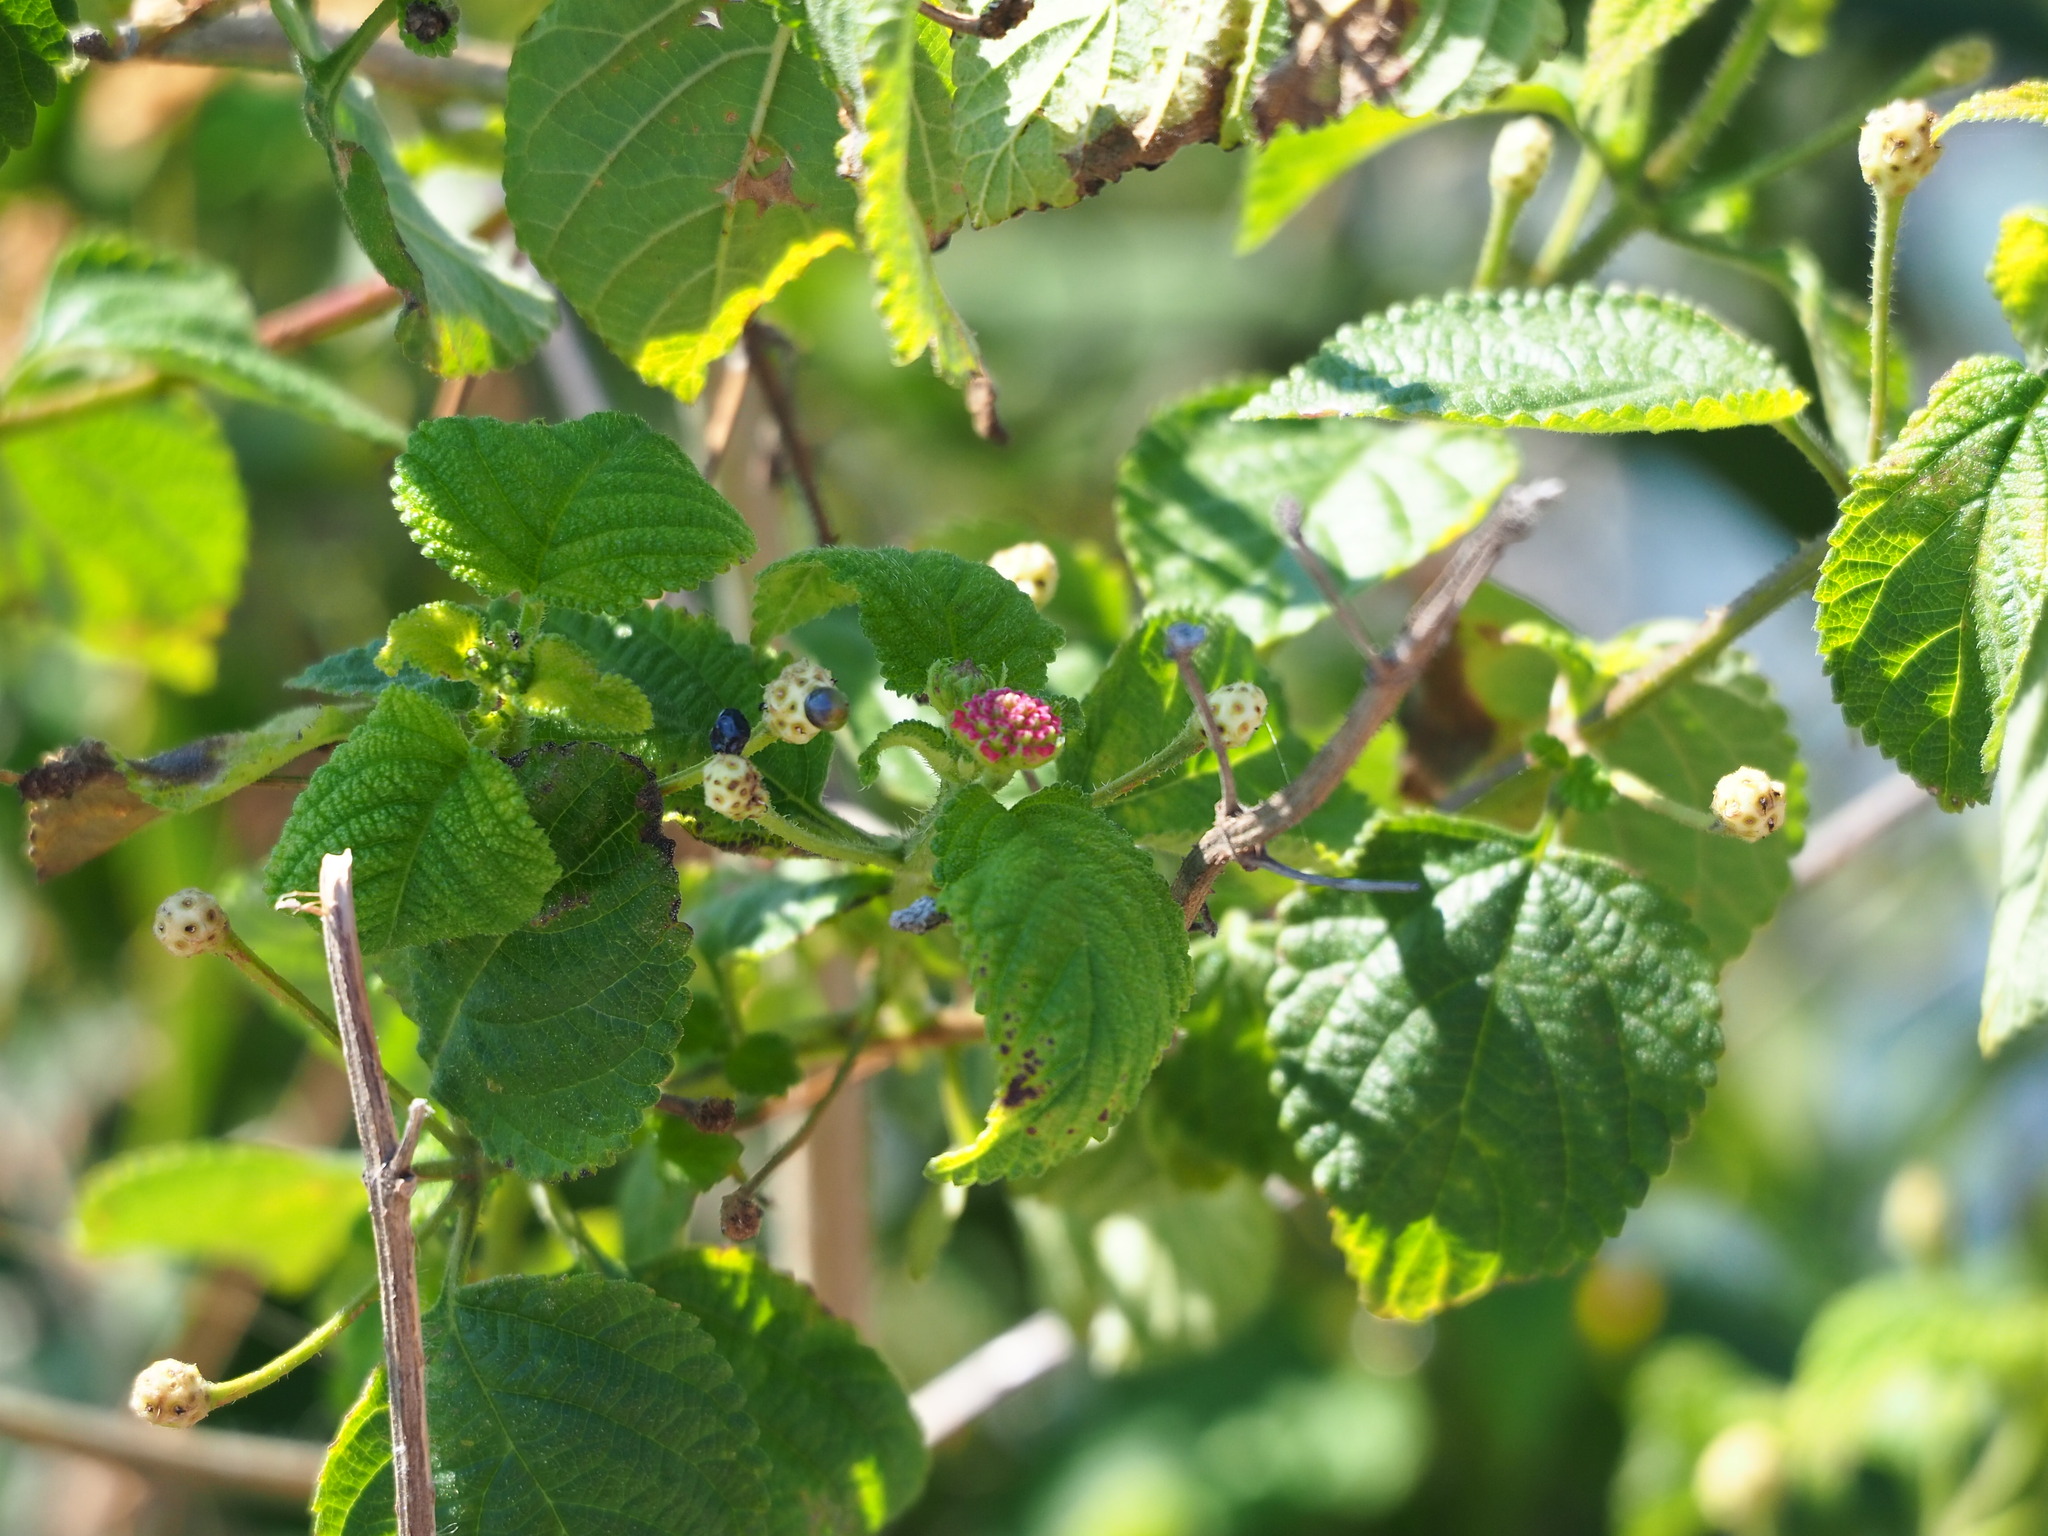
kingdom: Plantae
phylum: Tracheophyta
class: Magnoliopsida
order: Lamiales
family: Verbenaceae
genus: Lantana
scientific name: Lantana camara
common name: Lantana
